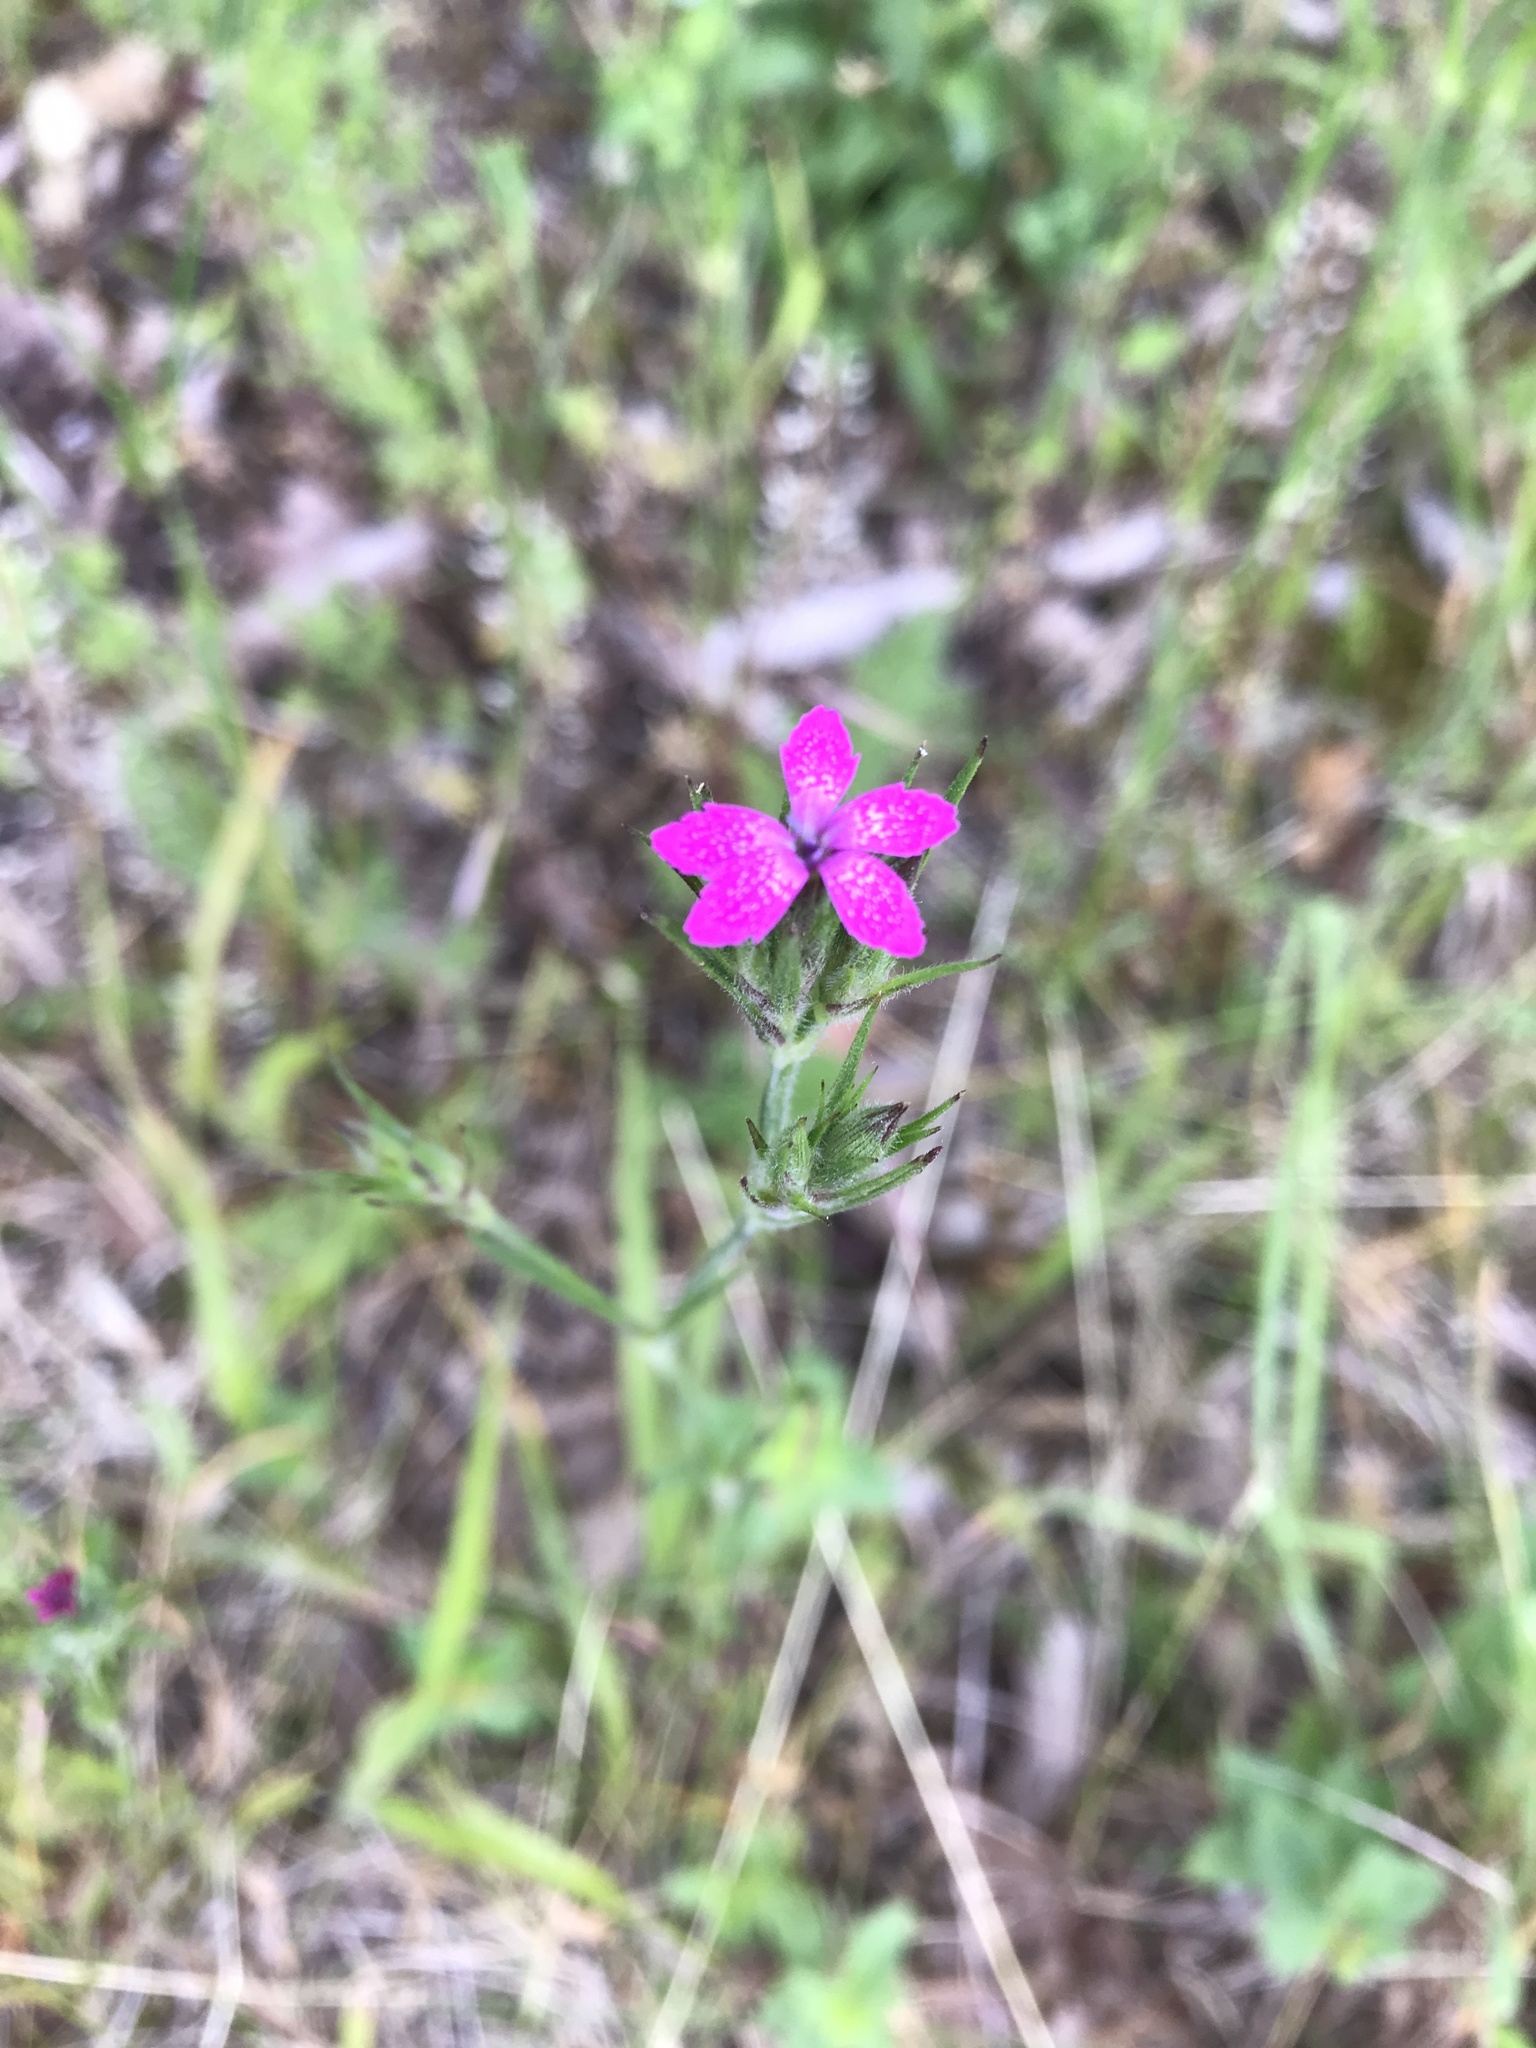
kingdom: Plantae
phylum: Tracheophyta
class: Magnoliopsida
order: Caryophyllales
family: Caryophyllaceae
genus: Dianthus
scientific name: Dianthus armeria
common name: Deptford pink
